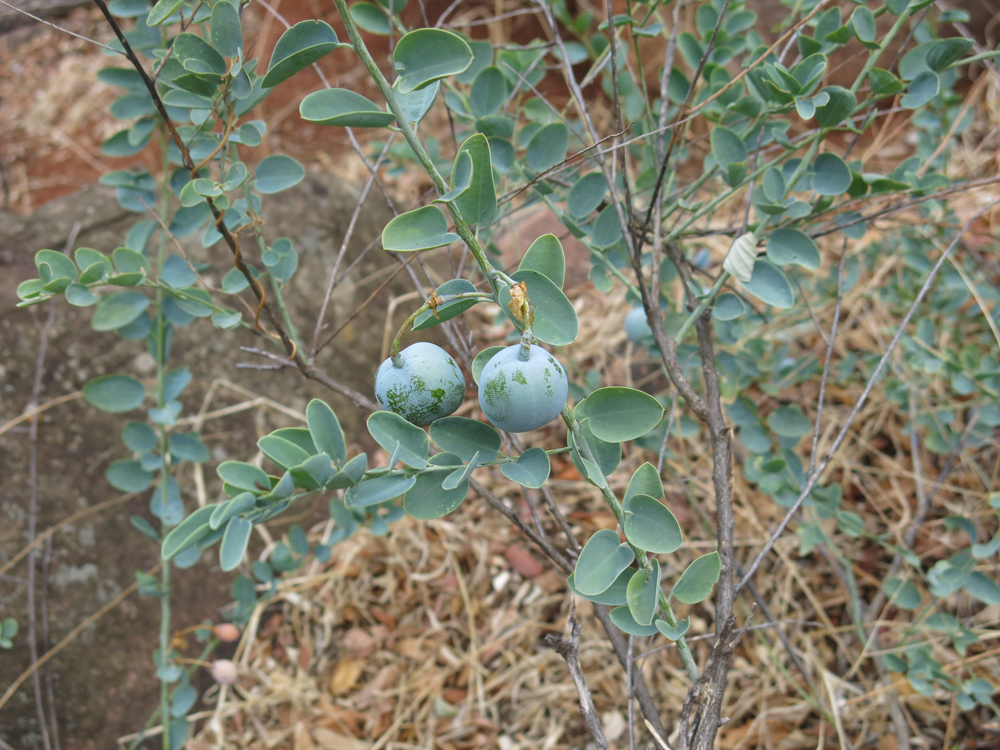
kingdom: Plantae
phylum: Tracheophyta
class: Magnoliopsida
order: Brassicales
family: Capparaceae
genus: Maerua
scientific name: Maerua decumbens
